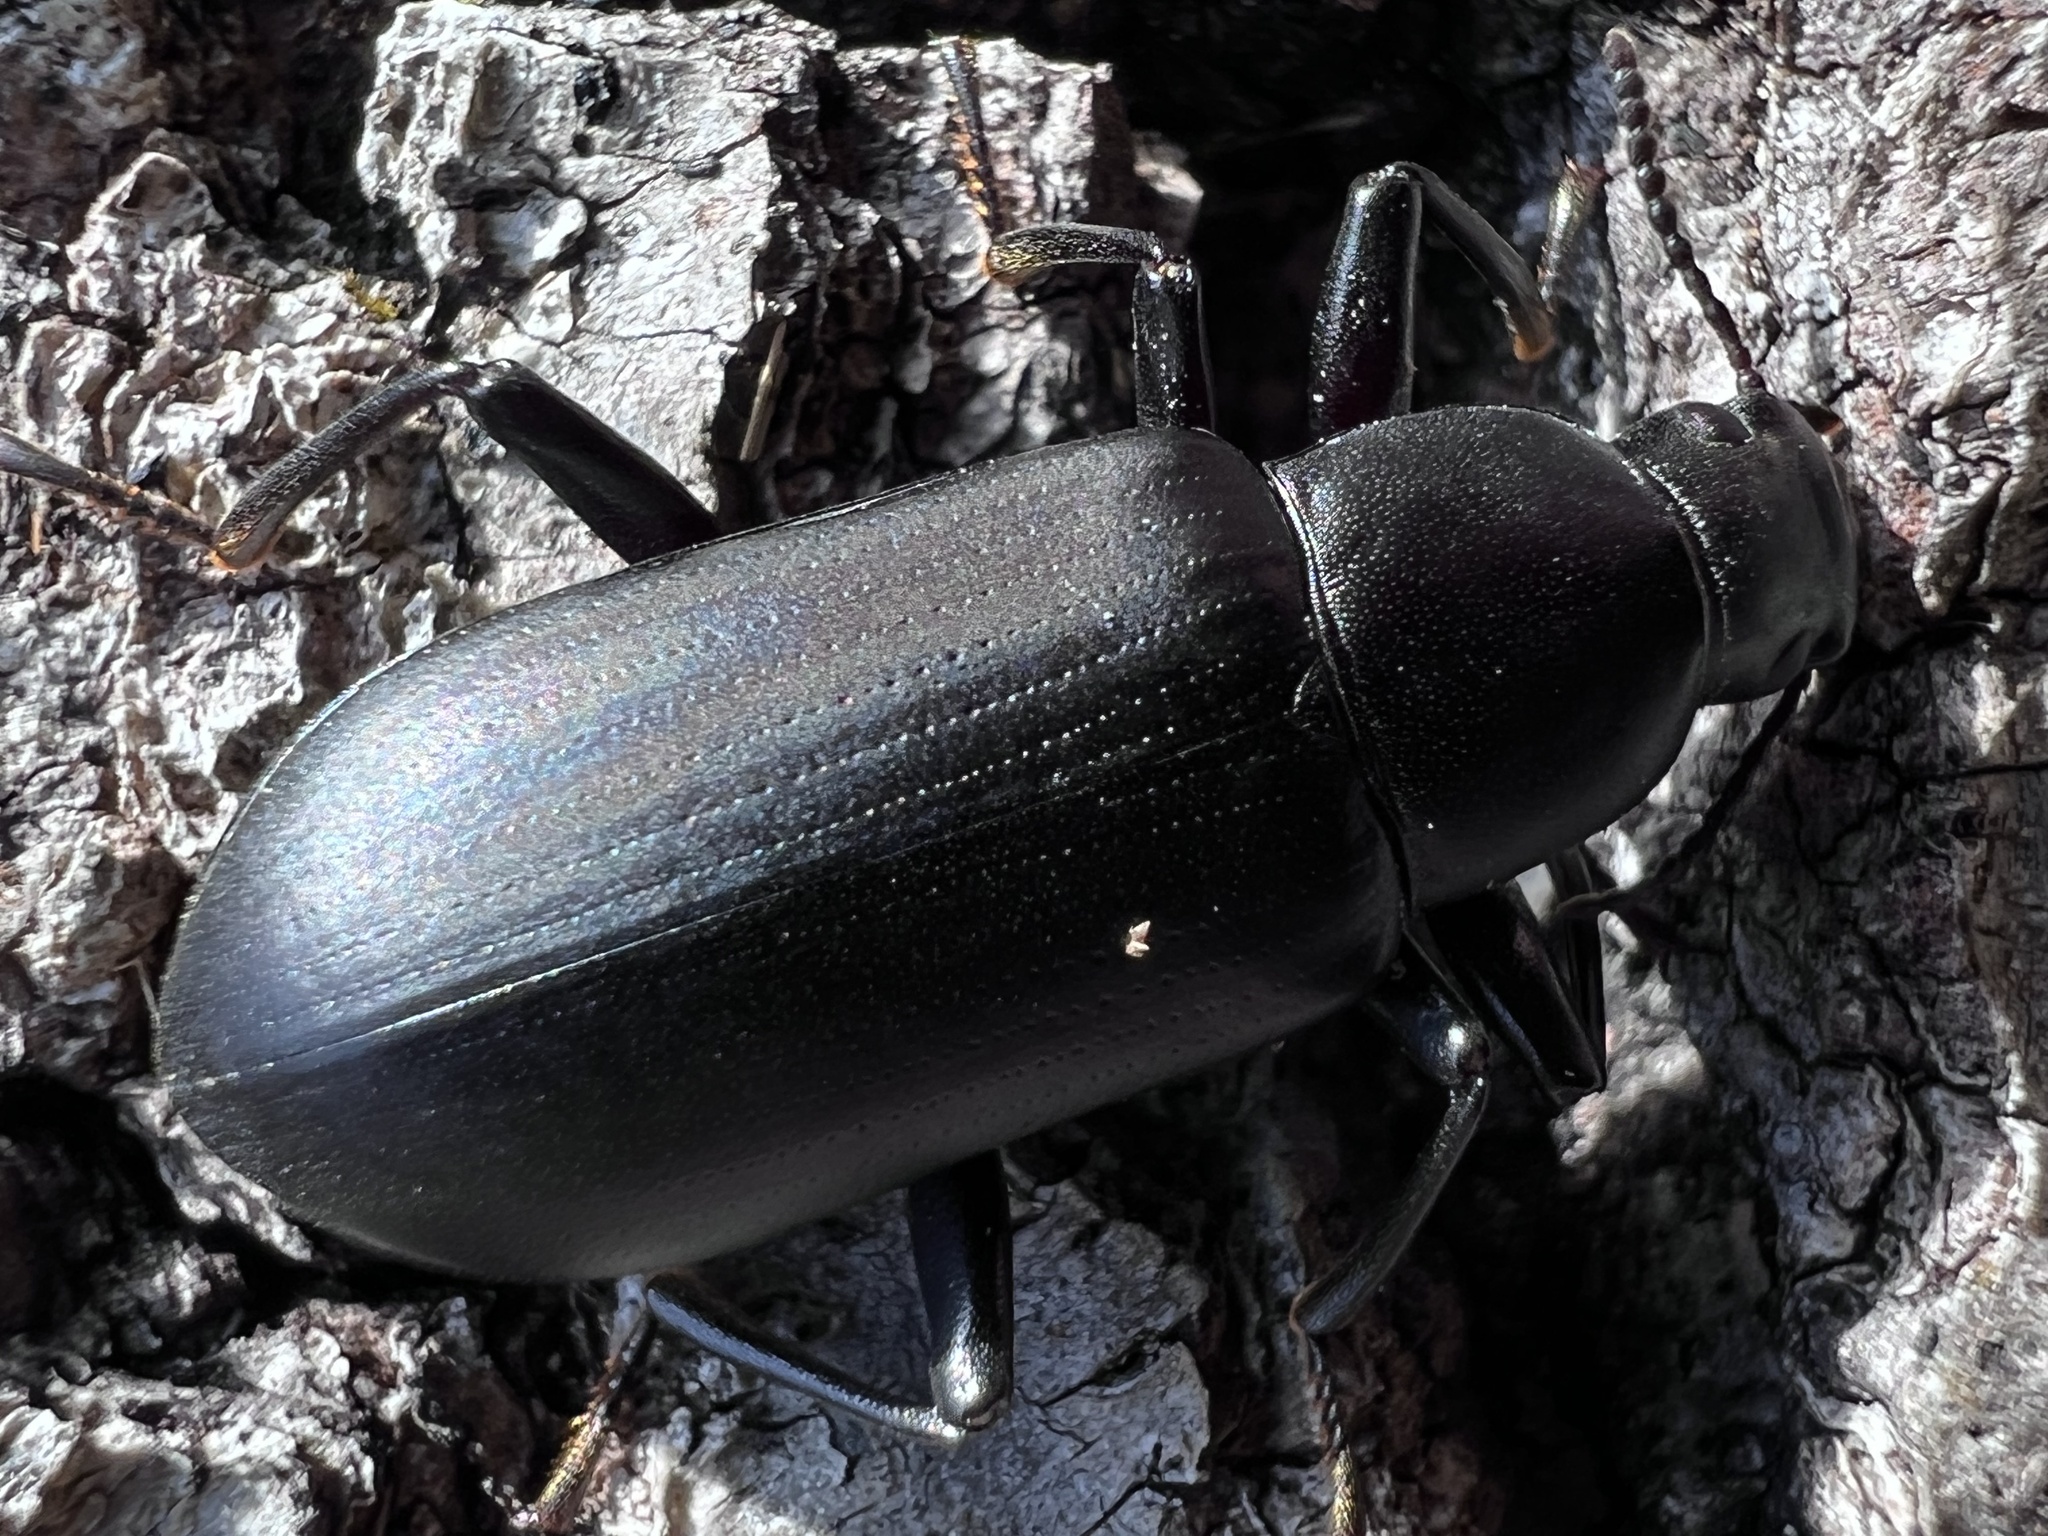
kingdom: Animalia
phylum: Arthropoda
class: Insecta
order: Coleoptera
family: Tenebrionidae
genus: Alobates
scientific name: Alobates
